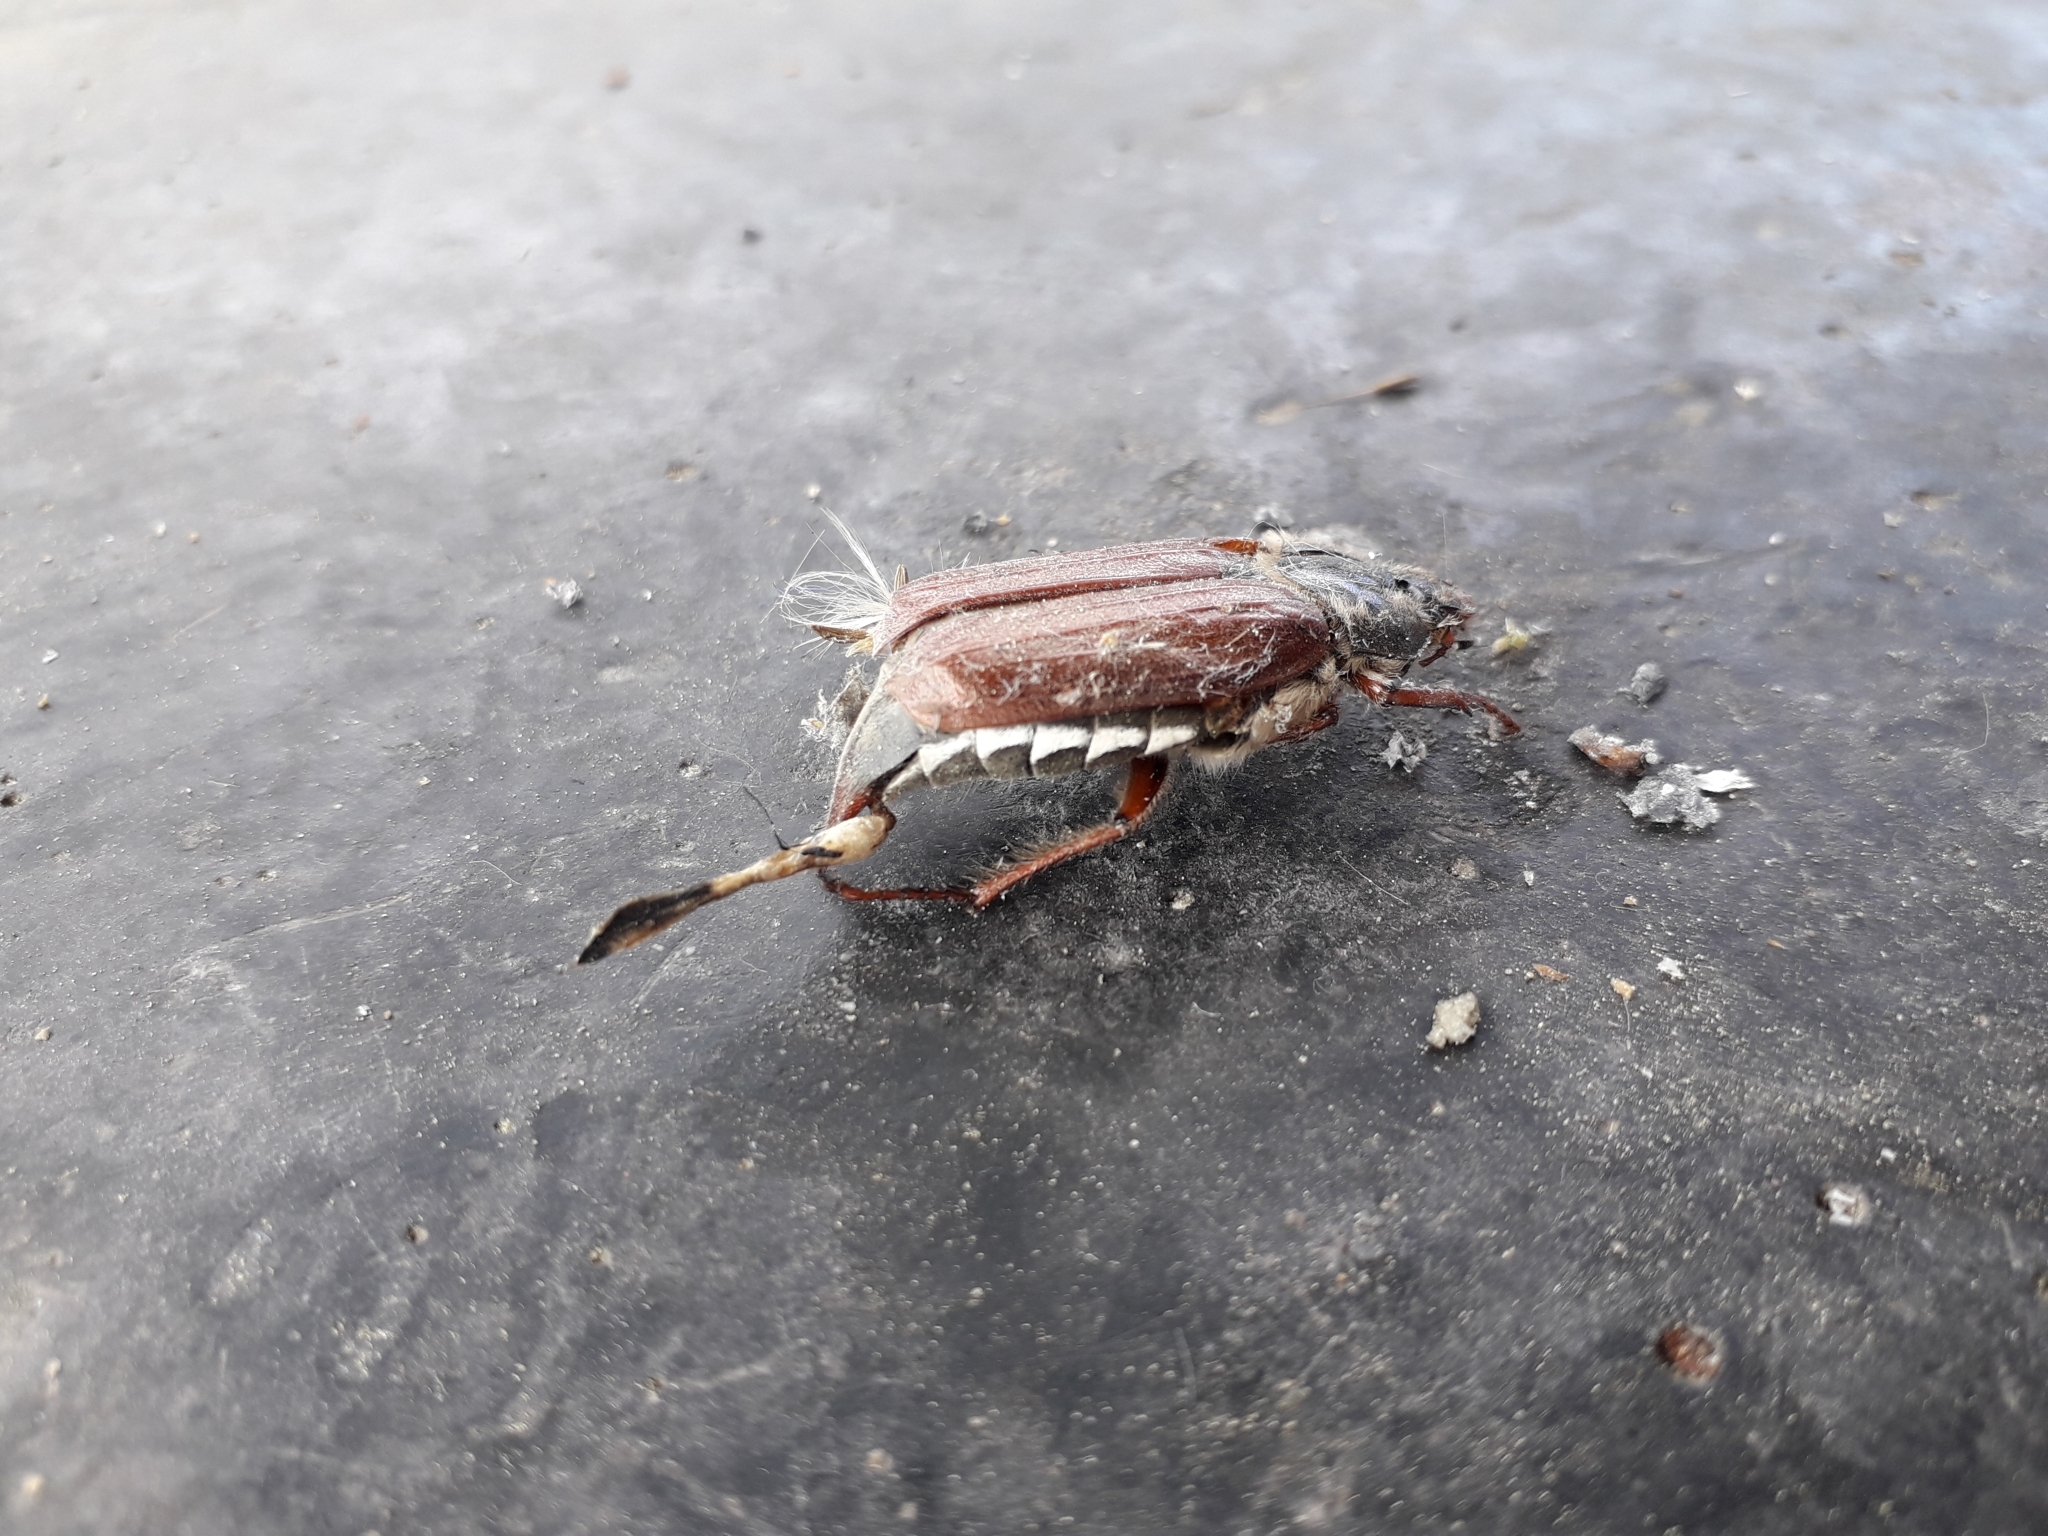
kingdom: Animalia
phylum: Arthropoda
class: Insecta
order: Coleoptera
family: Scarabaeidae
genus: Melolontha
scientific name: Melolontha melolontha
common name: Cockchafer maybeetle
